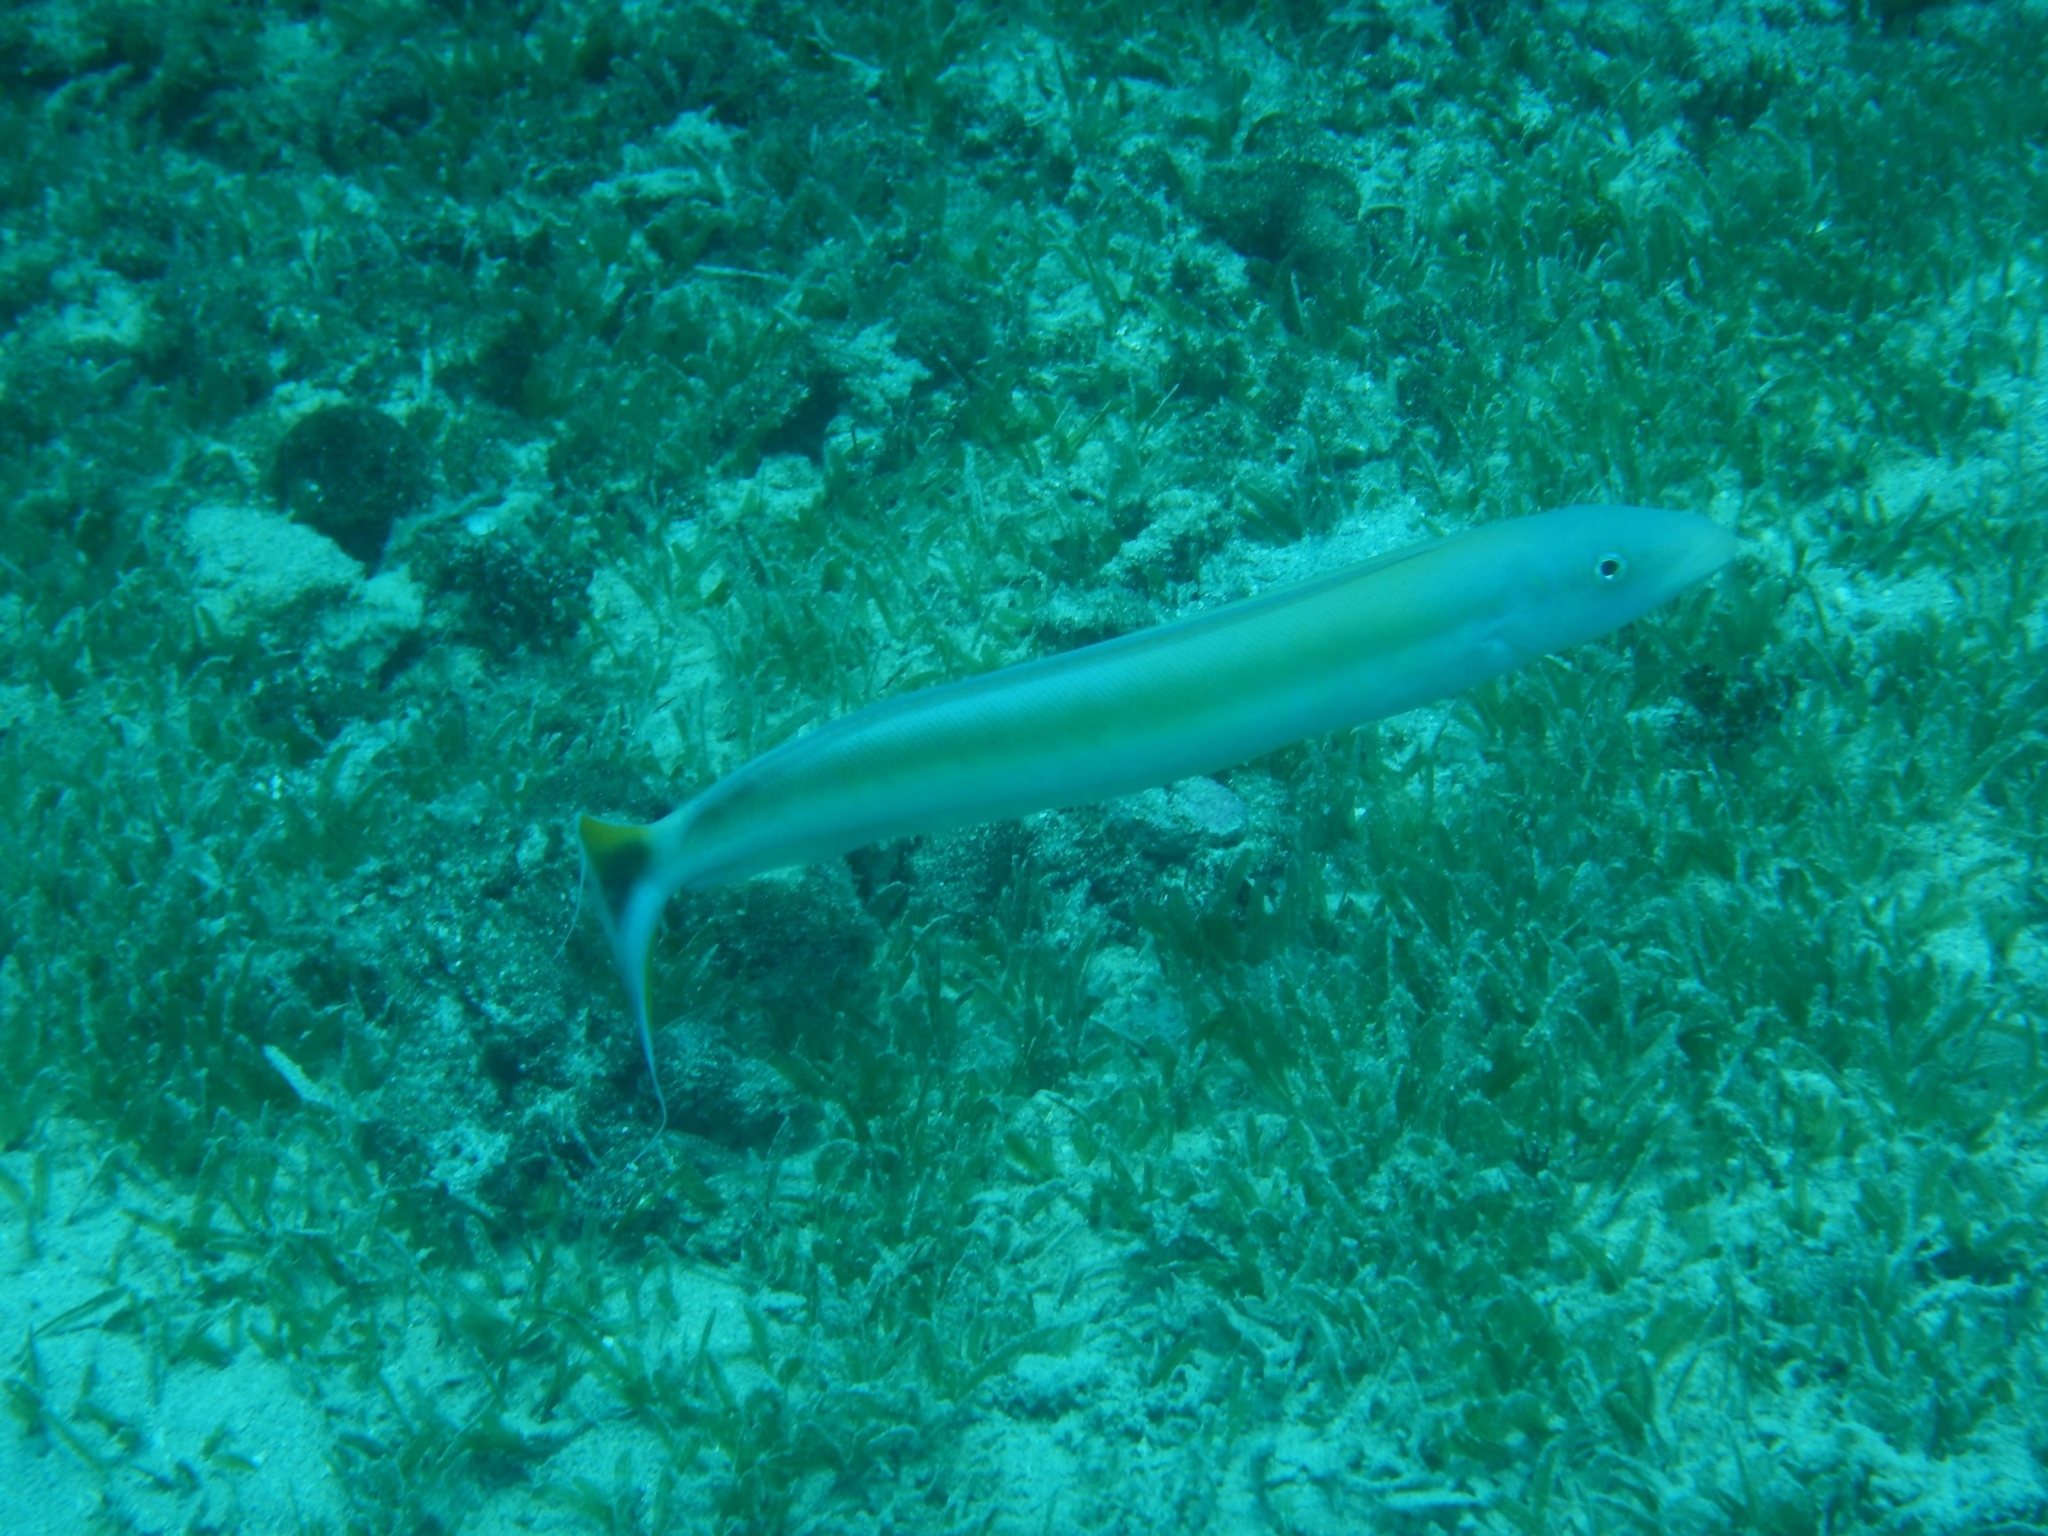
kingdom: Animalia
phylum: Chordata
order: Perciformes
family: Malacanthidae
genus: Malacanthus
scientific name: Malacanthus plumieri
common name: Sand tilefish
